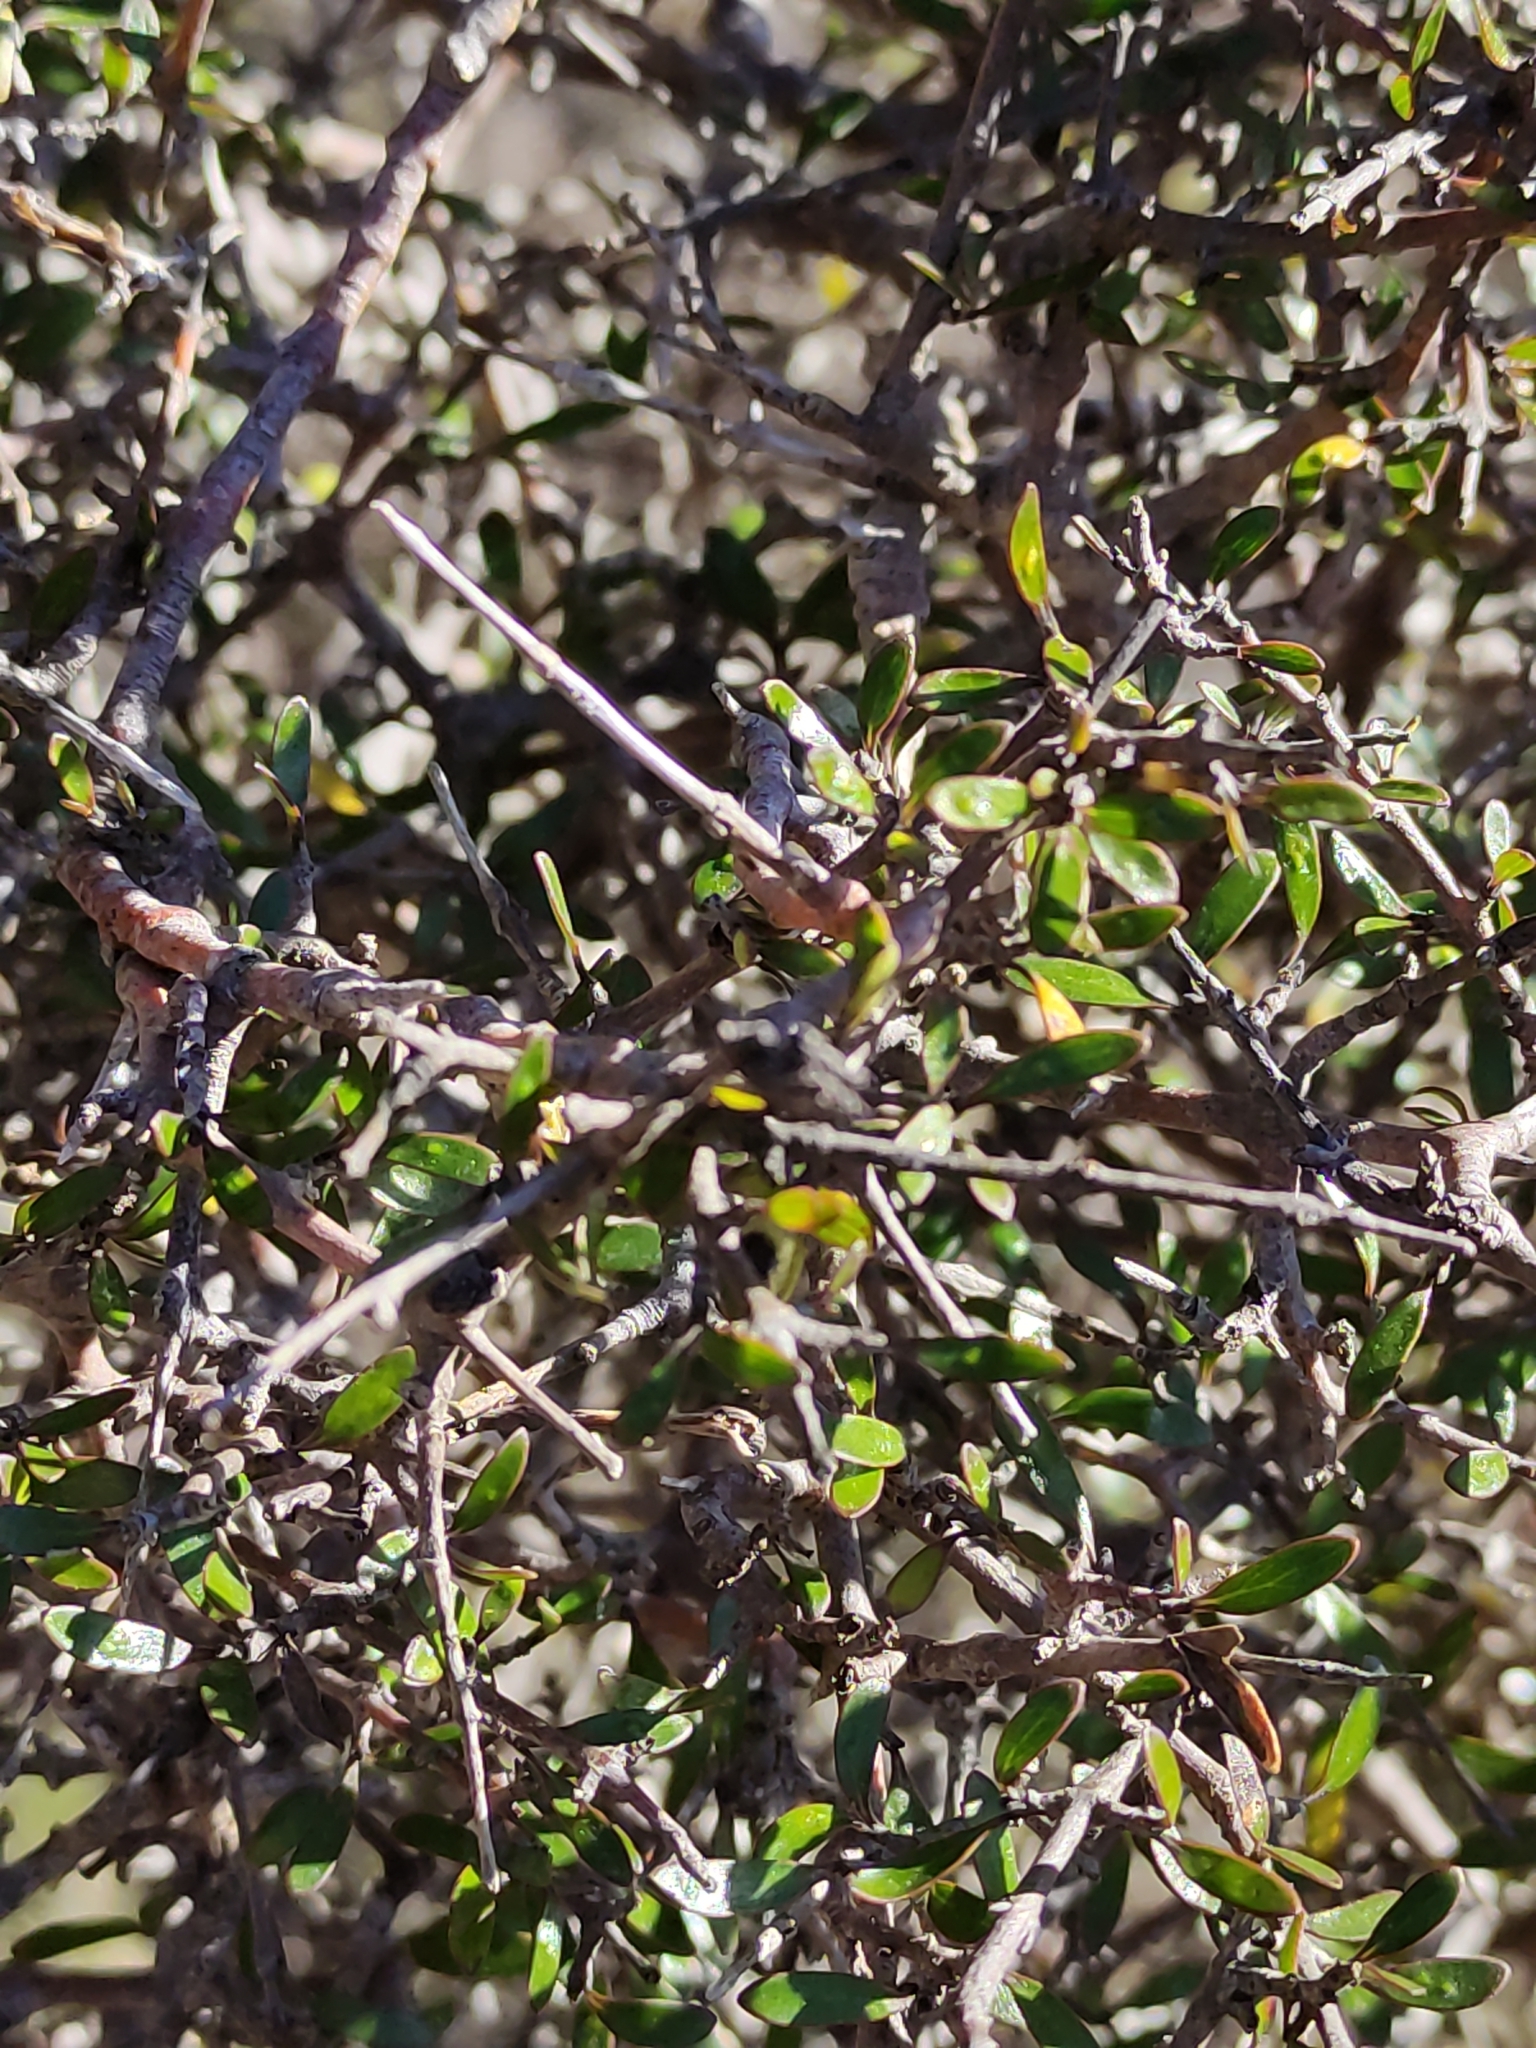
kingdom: Plantae
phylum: Tracheophyta
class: Magnoliopsida
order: Gentianales
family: Rubiaceae
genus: Coprosma
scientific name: Coprosma propinqua
